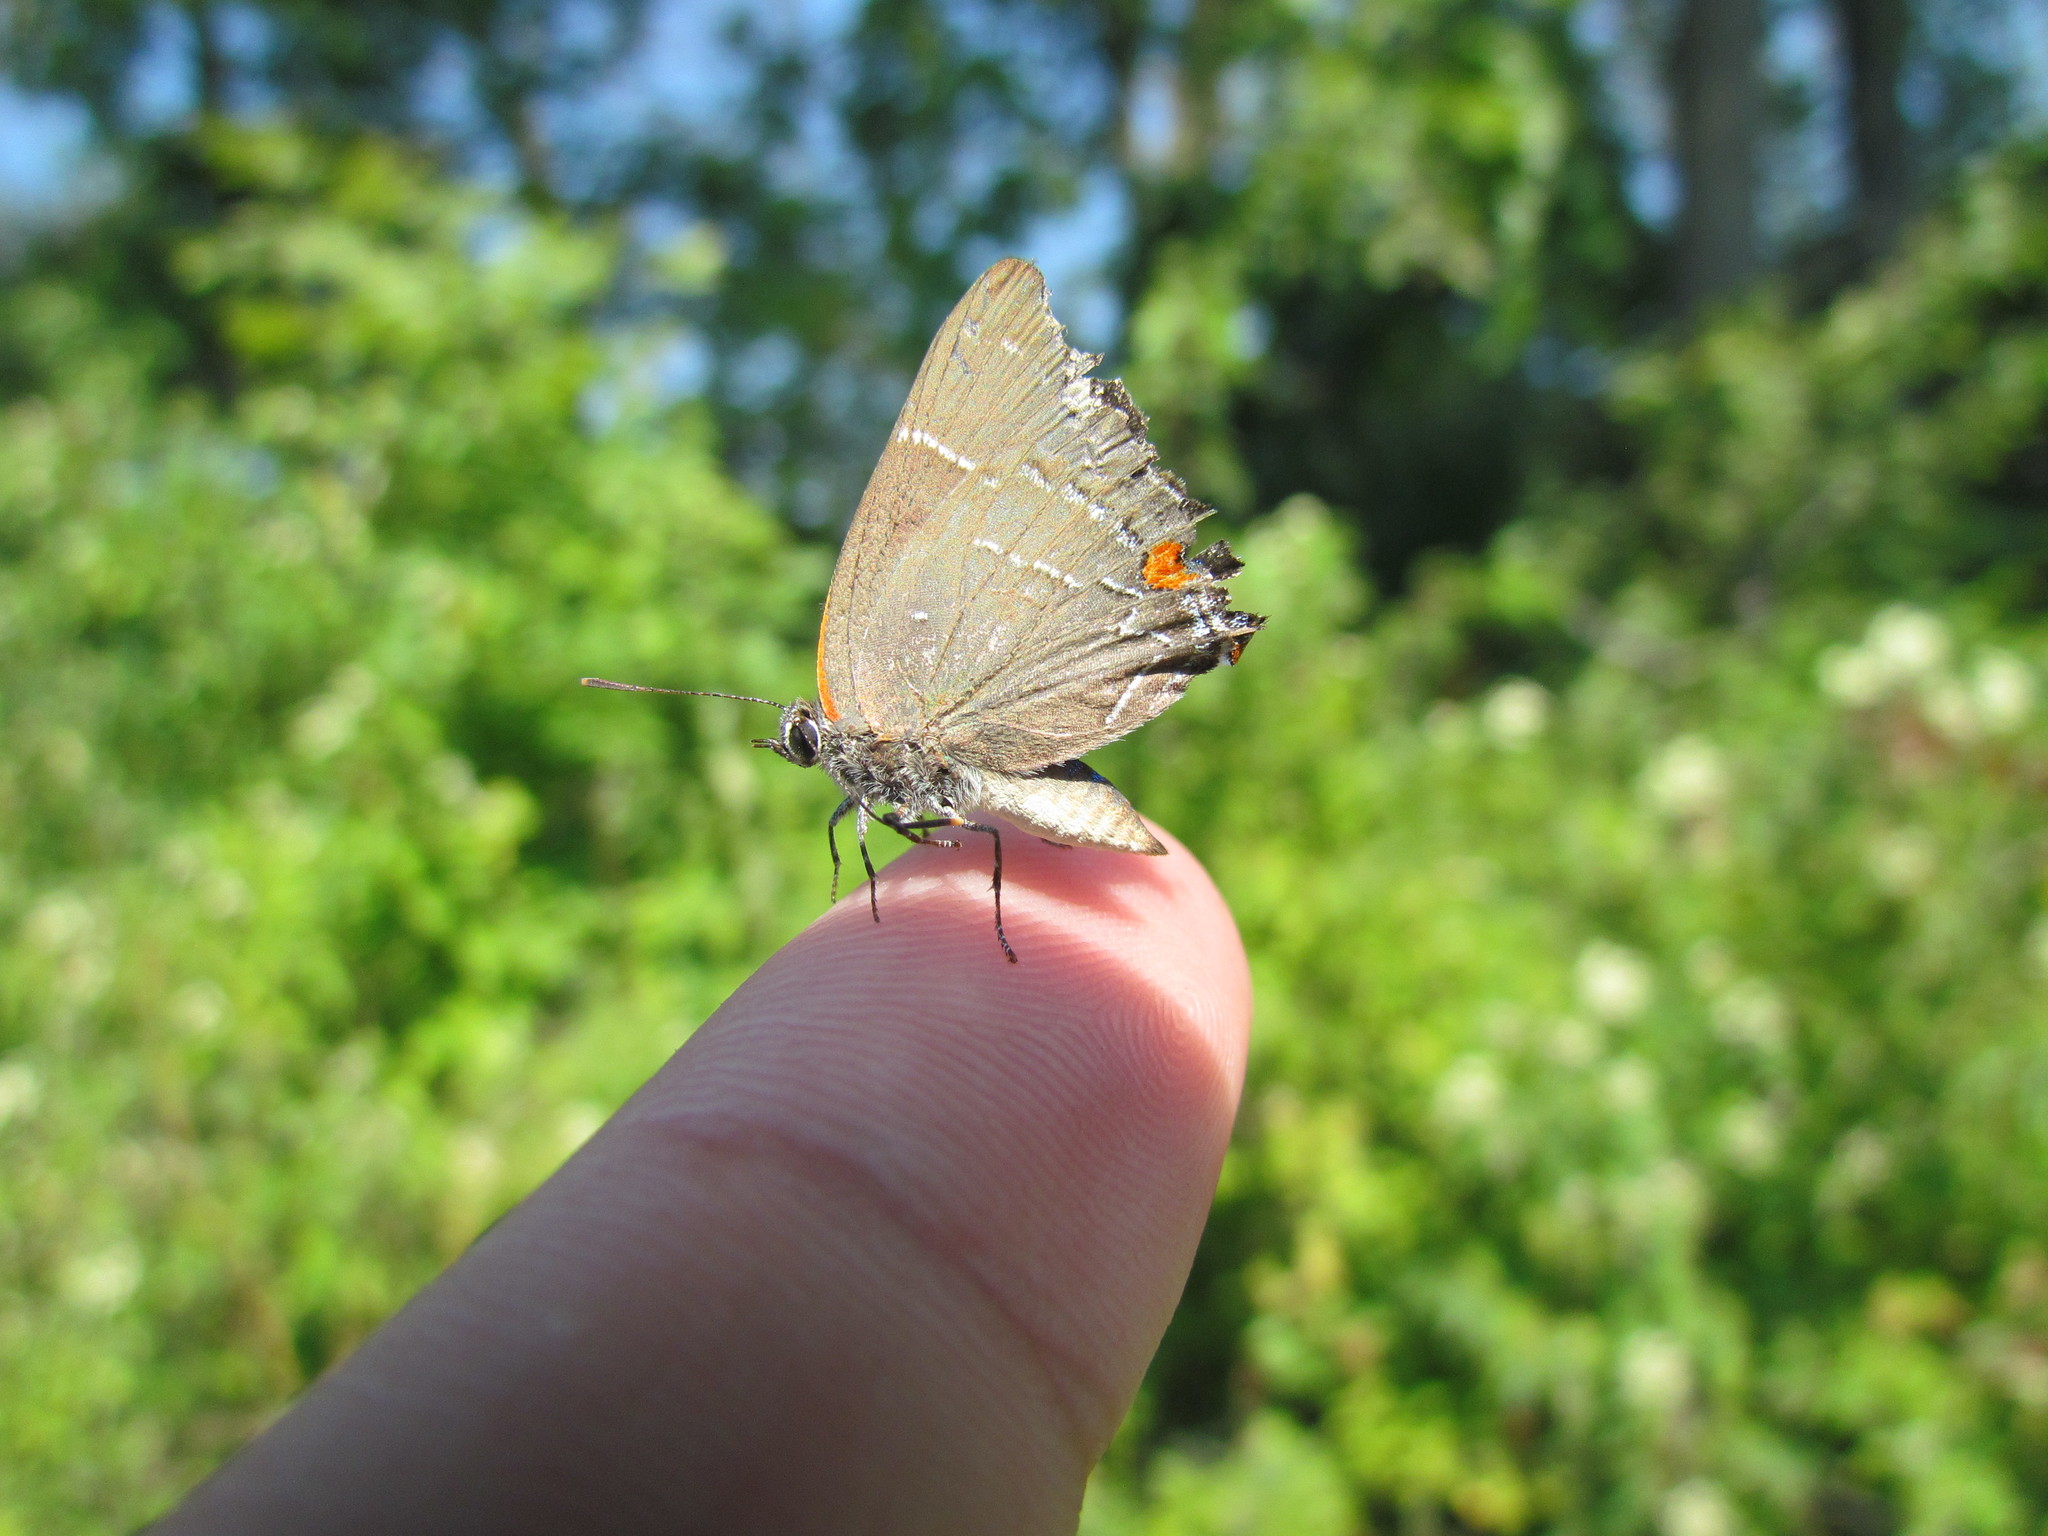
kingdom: Animalia
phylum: Arthropoda
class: Insecta
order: Lepidoptera
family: Lycaenidae
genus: Parrhasius
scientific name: Parrhasius m-album
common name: White m hairstreak
